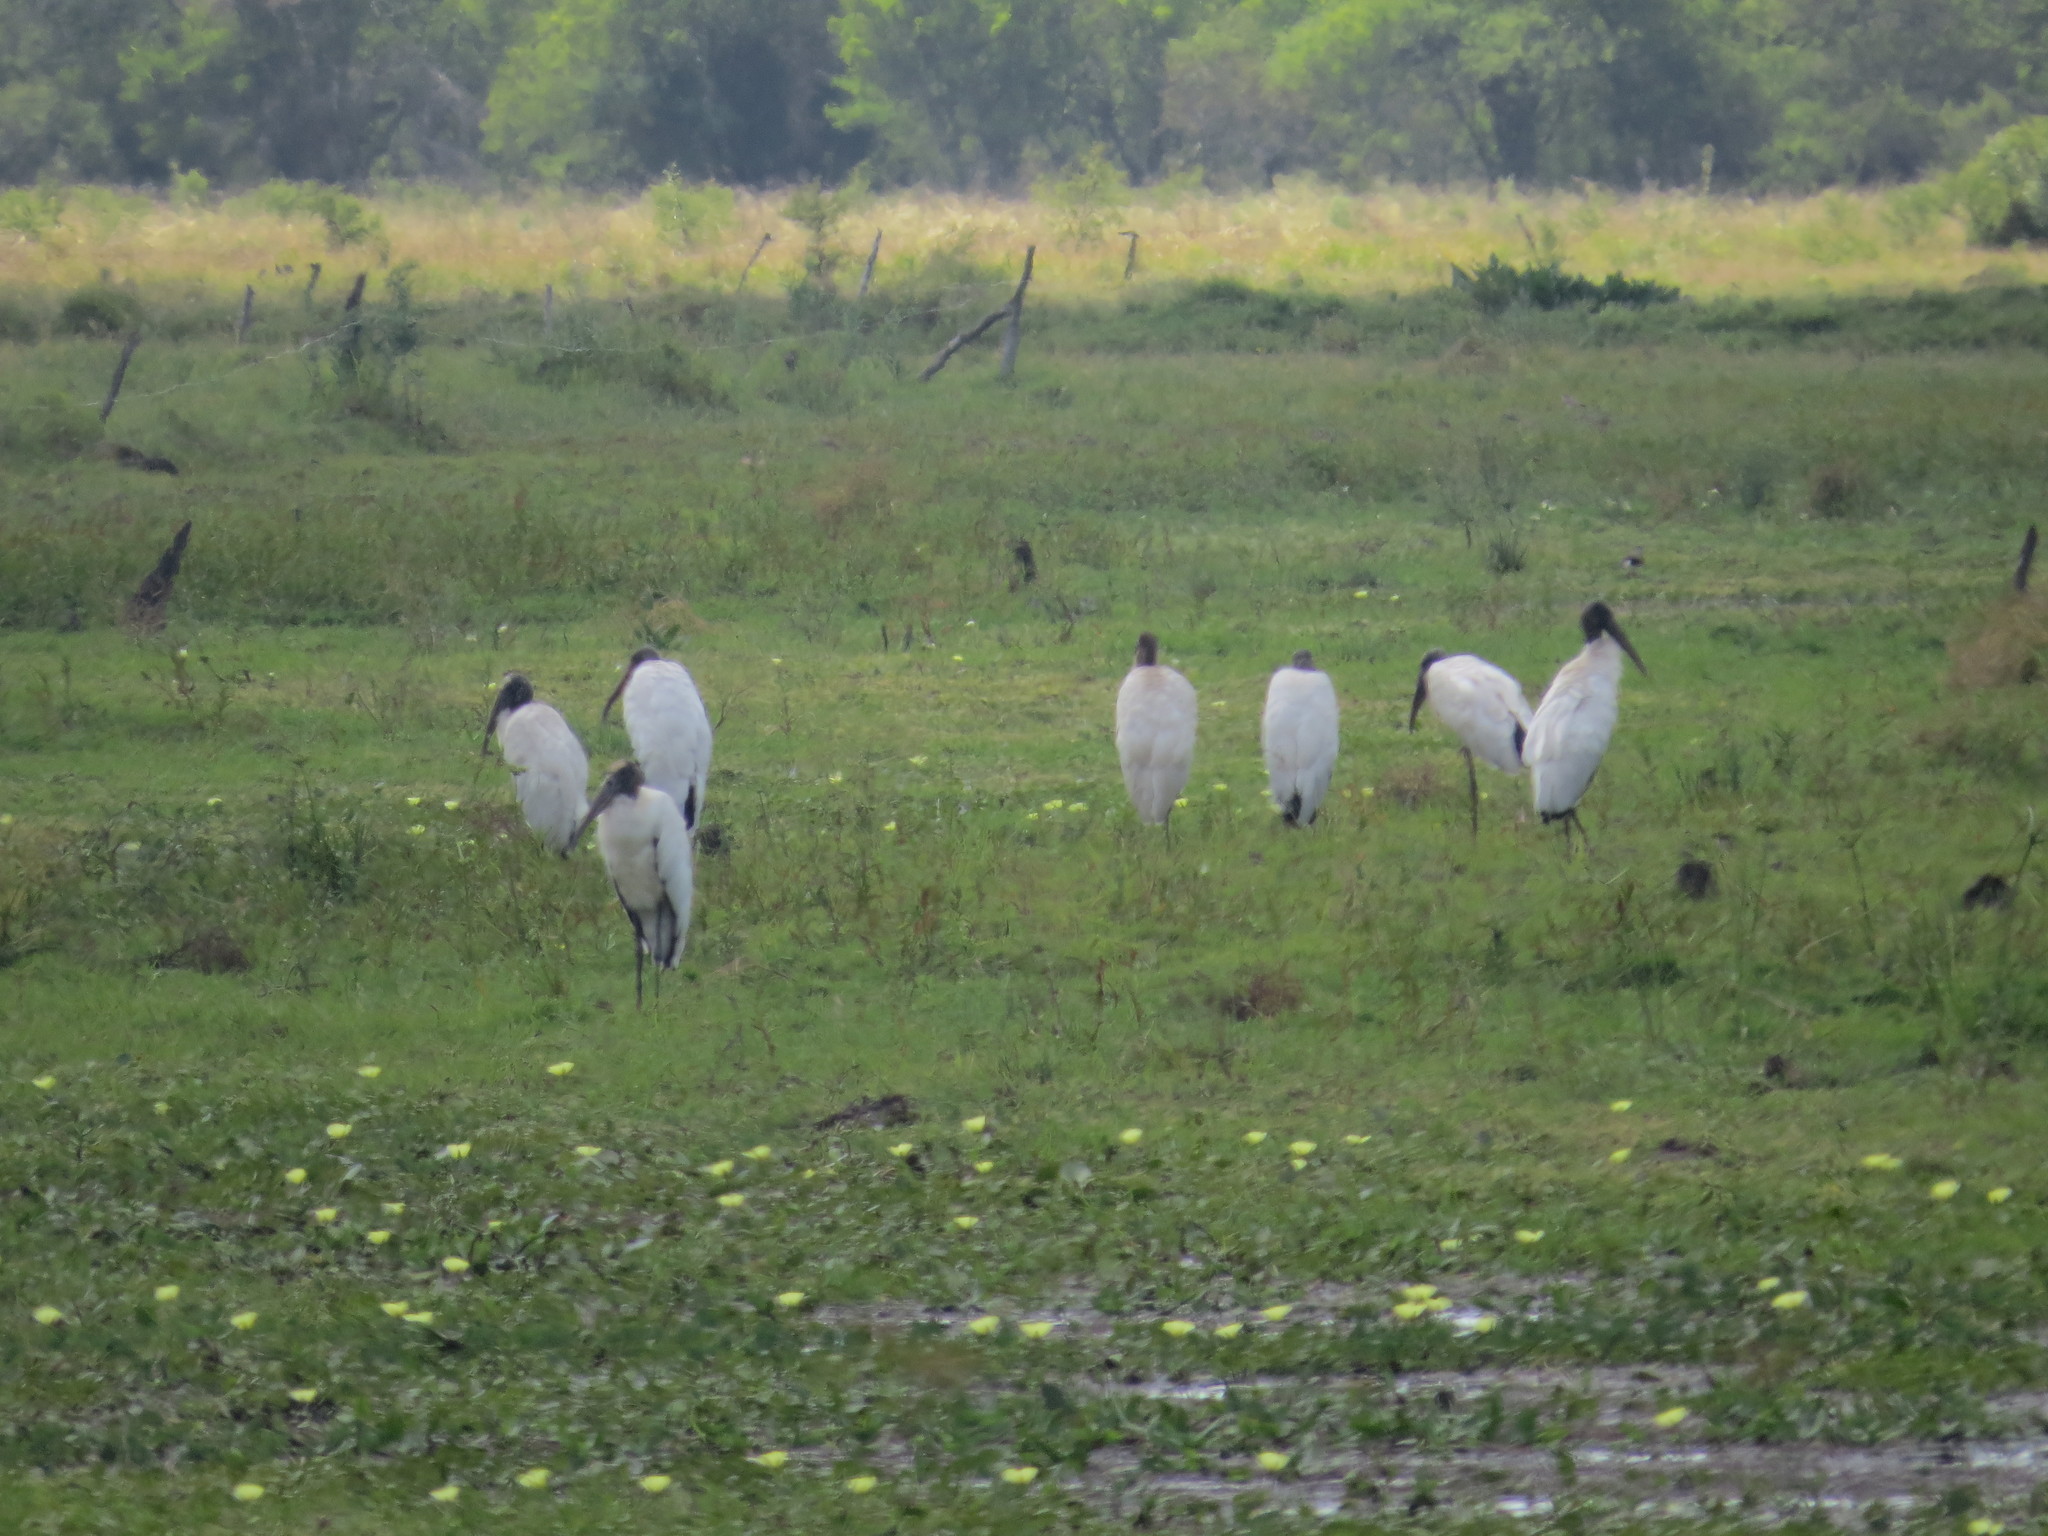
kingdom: Animalia
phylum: Chordata
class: Aves
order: Ciconiiformes
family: Ciconiidae
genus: Mycteria
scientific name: Mycteria americana
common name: Wood stork
